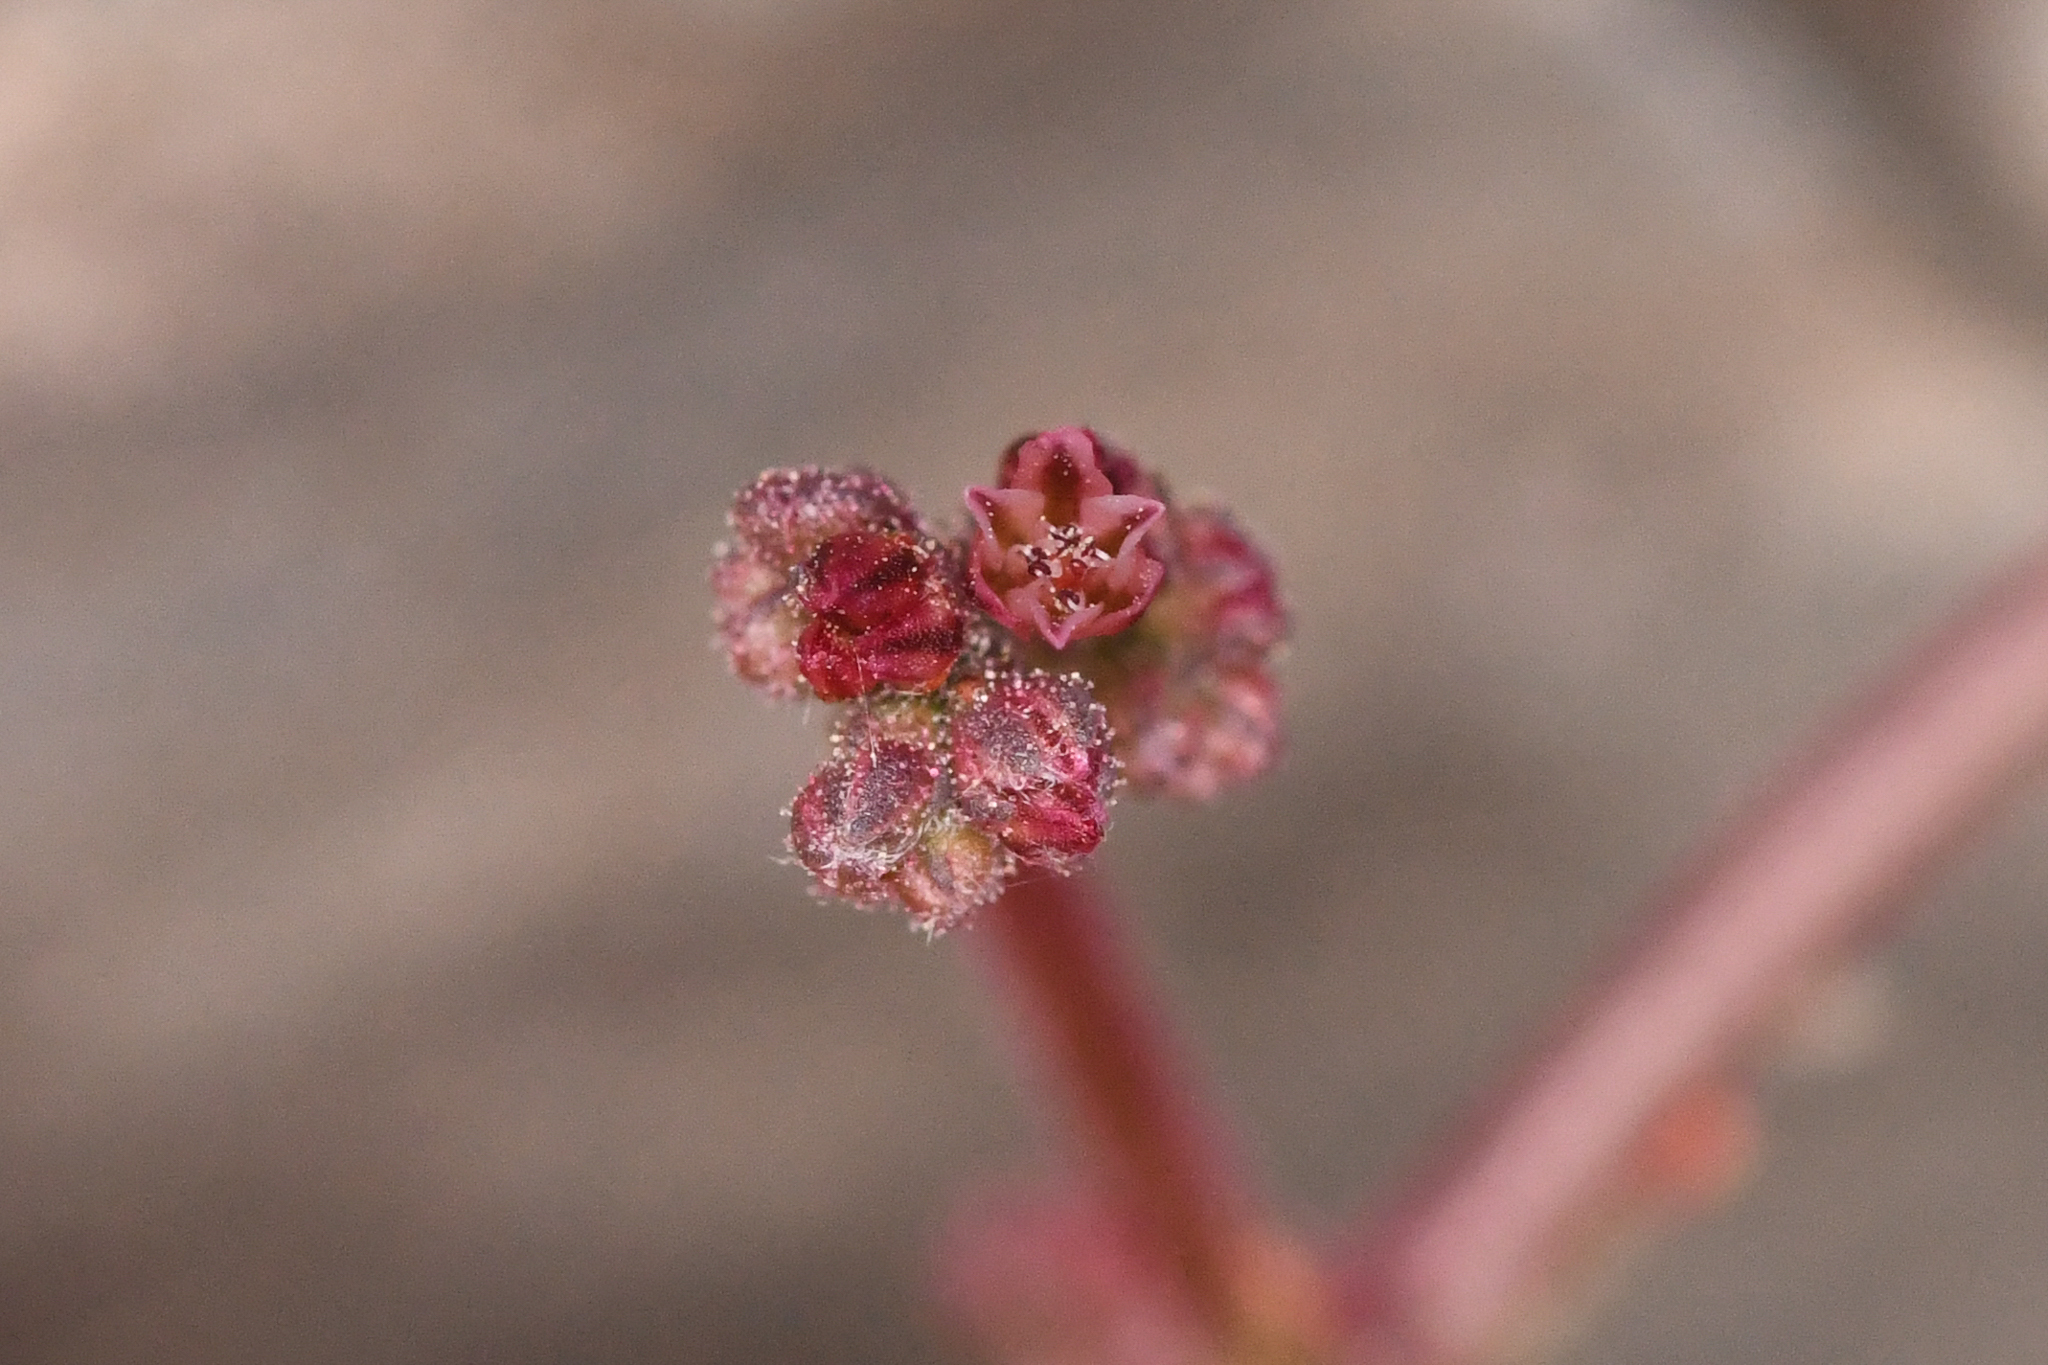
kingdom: Plantae
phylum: Tracheophyta
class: Magnoliopsida
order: Caryophyllales
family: Polygonaceae
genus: Eriogonum
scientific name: Eriogonum eremicola
